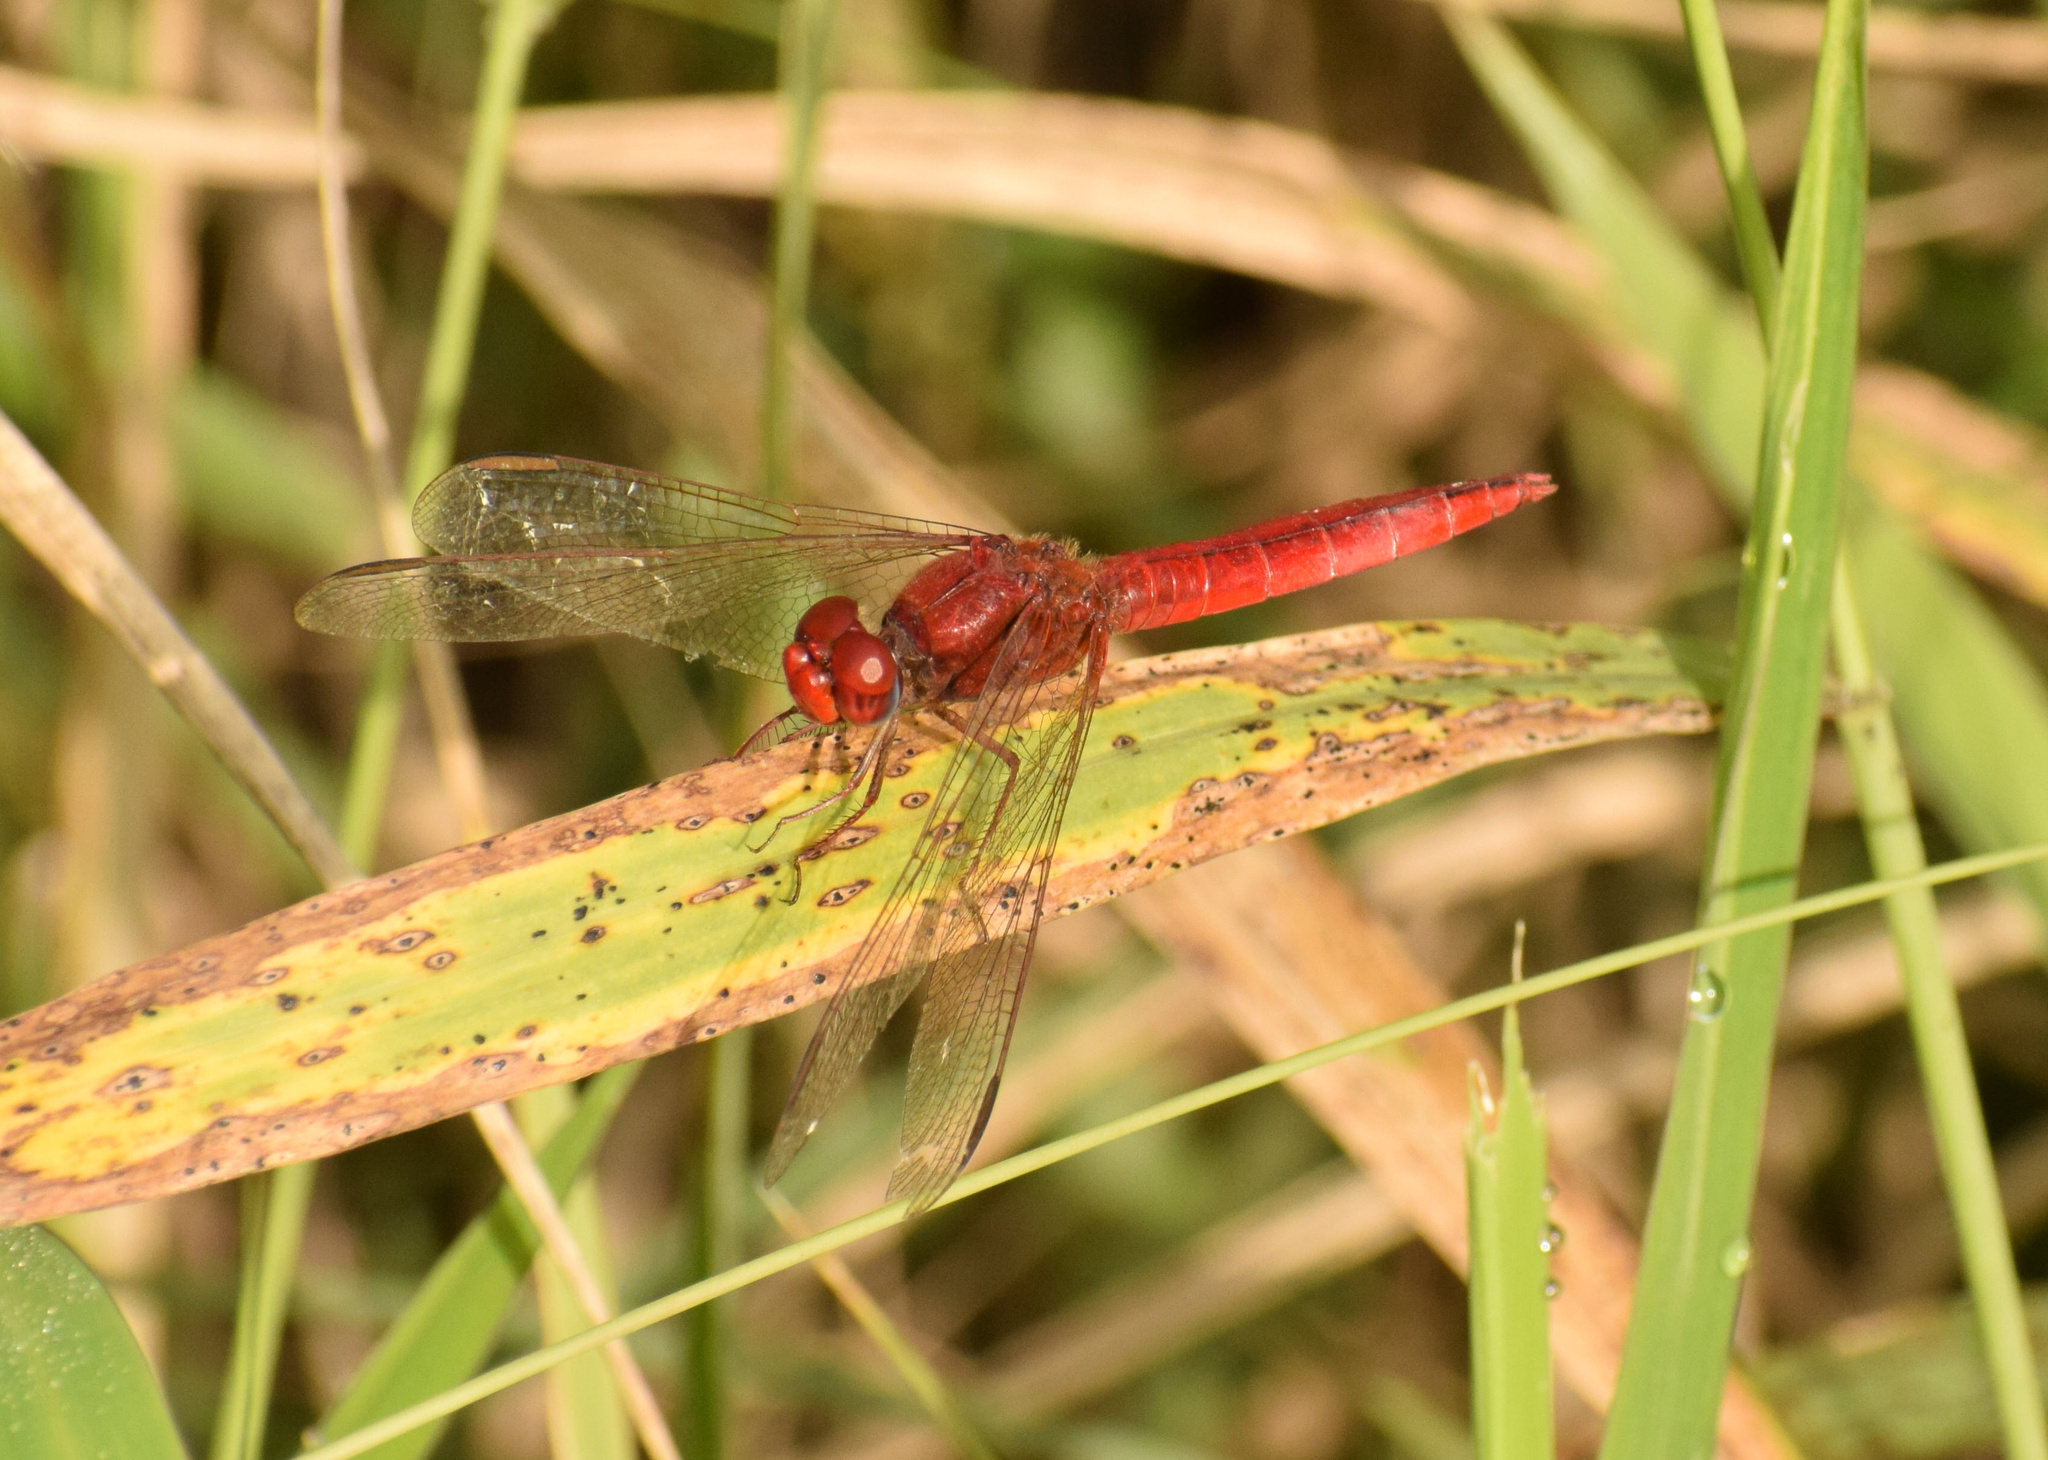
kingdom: Animalia
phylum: Arthropoda
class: Insecta
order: Odonata
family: Libellulidae
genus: Crocothemis
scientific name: Crocothemis erythraea
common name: Scarlet dragonfly
